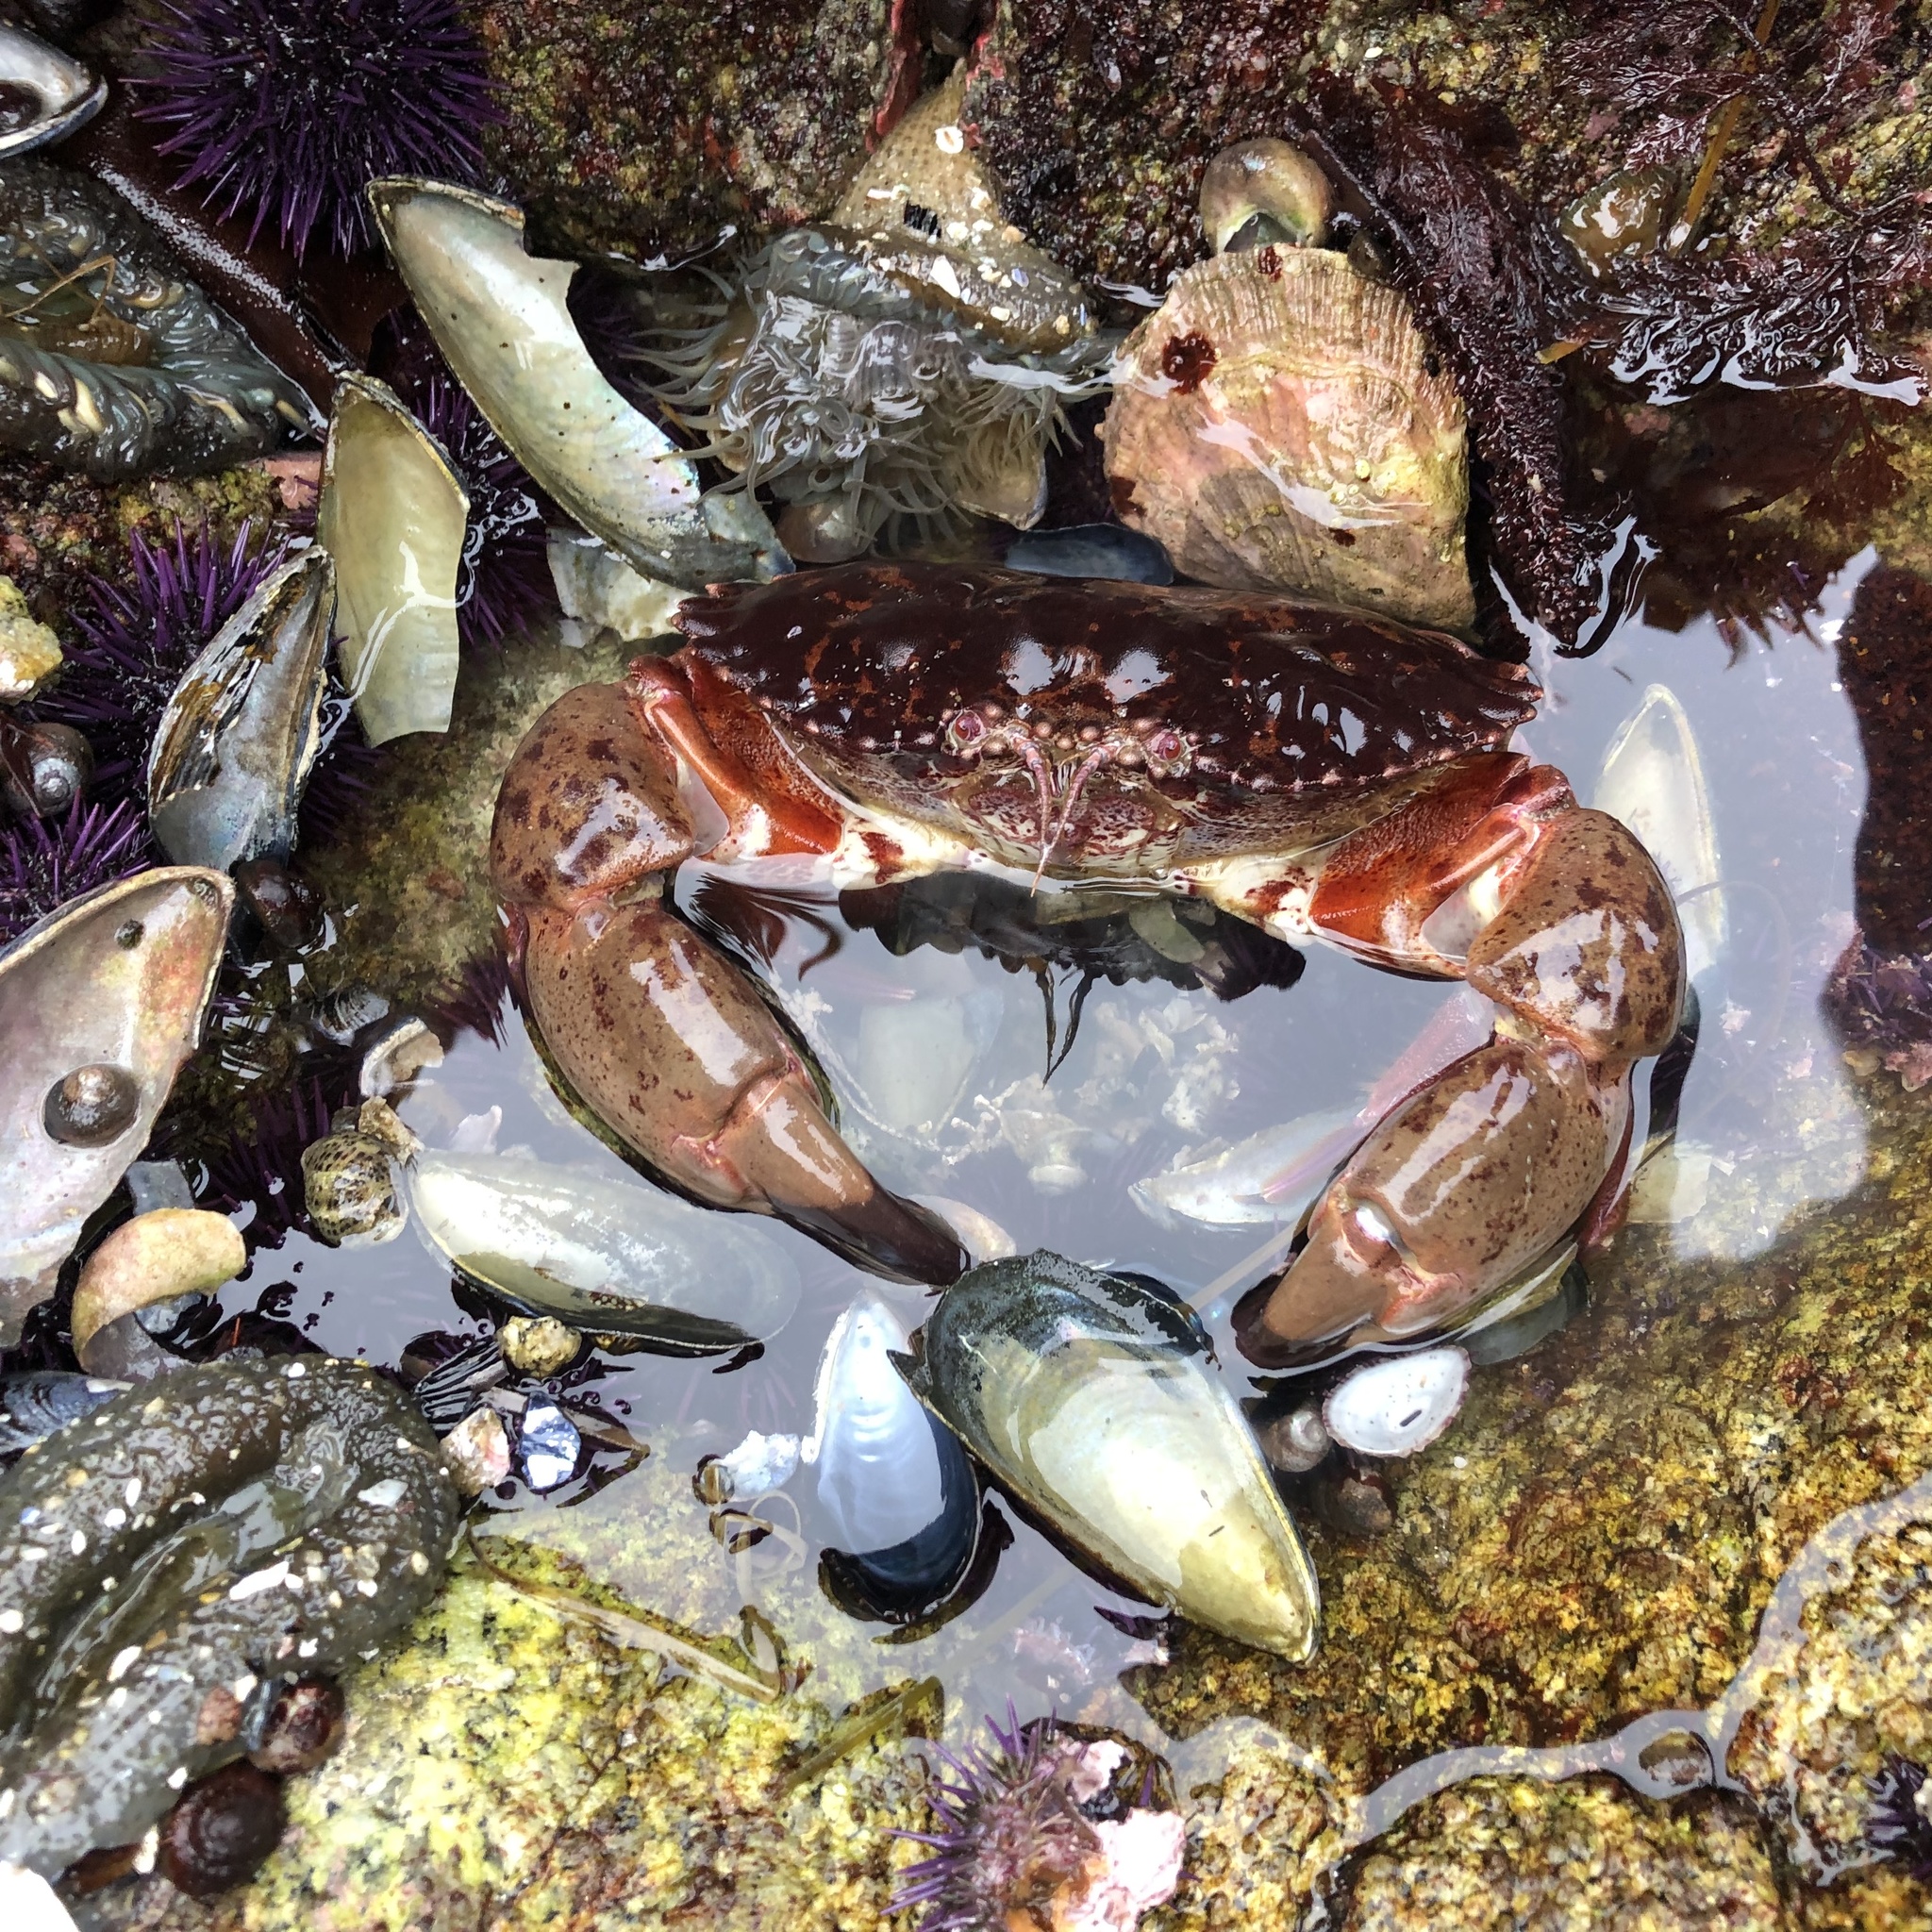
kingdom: Animalia
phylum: Arthropoda
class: Malacostraca
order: Decapoda
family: Cancridae
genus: Romaleon
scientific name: Romaleon antennarium
